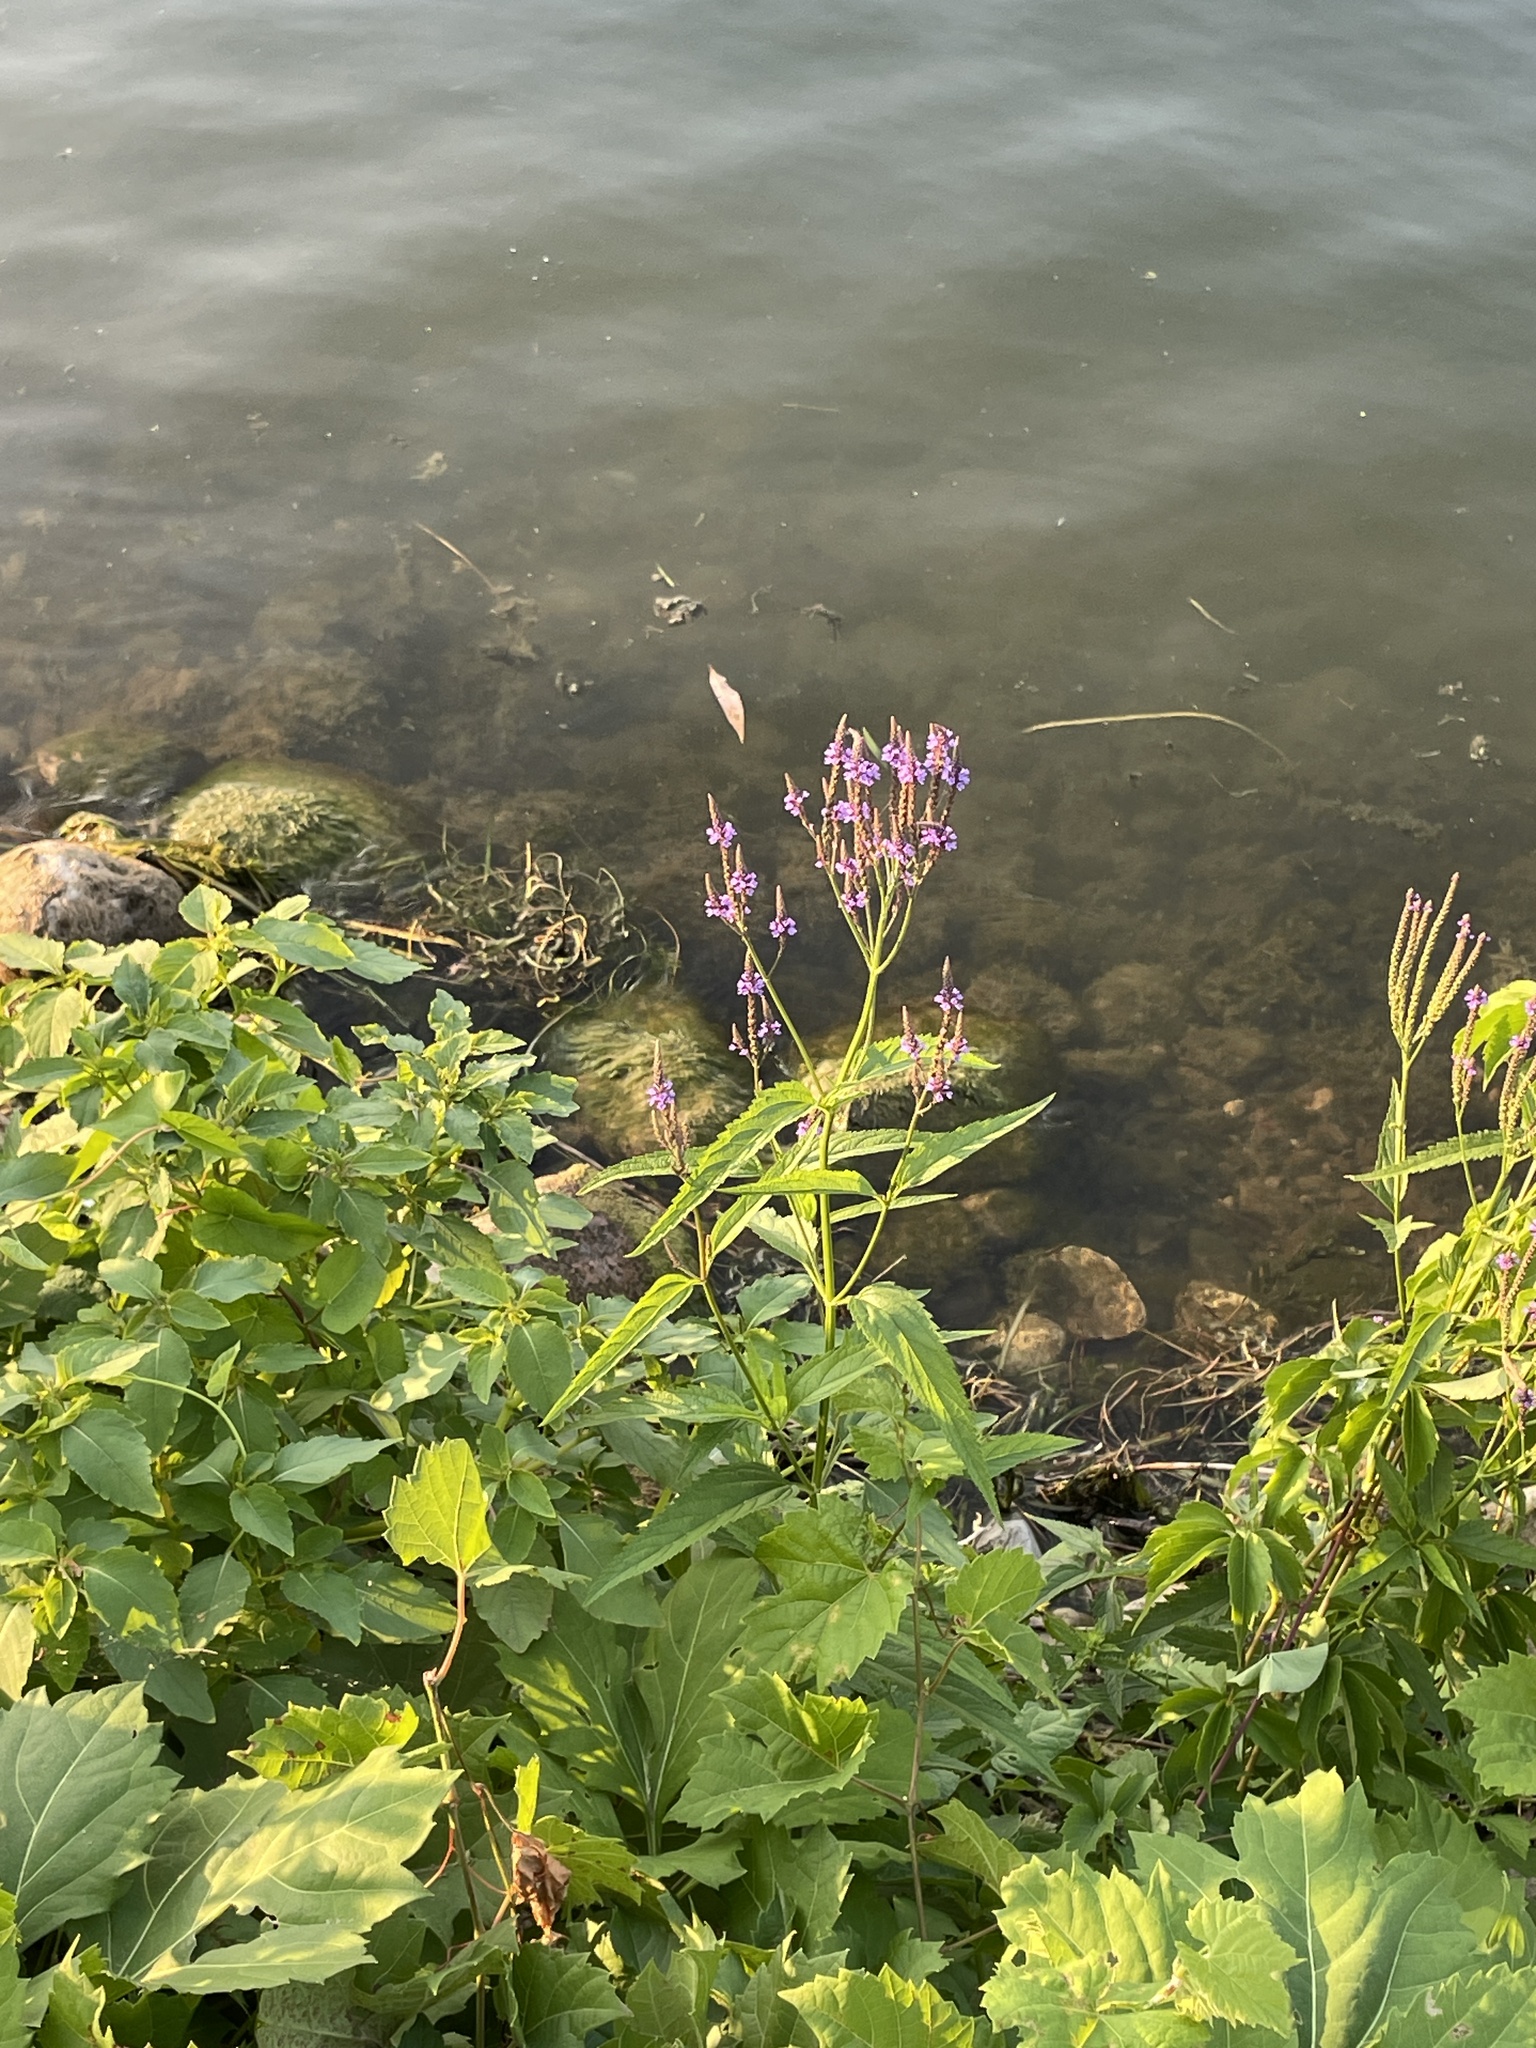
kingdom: Plantae
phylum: Tracheophyta
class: Magnoliopsida
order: Lamiales
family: Verbenaceae
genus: Verbena
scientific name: Verbena hastata
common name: American blue vervain
